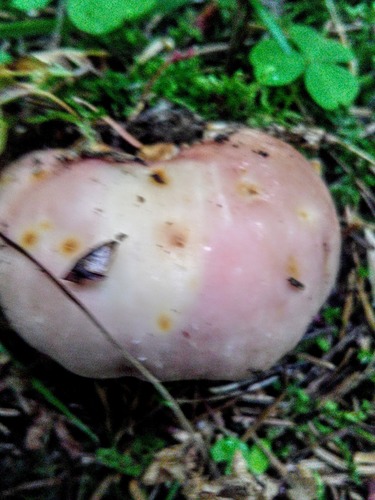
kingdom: Fungi
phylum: Basidiomycota
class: Agaricomycetes
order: Russulales
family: Russulaceae
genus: Russula
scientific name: Russula
